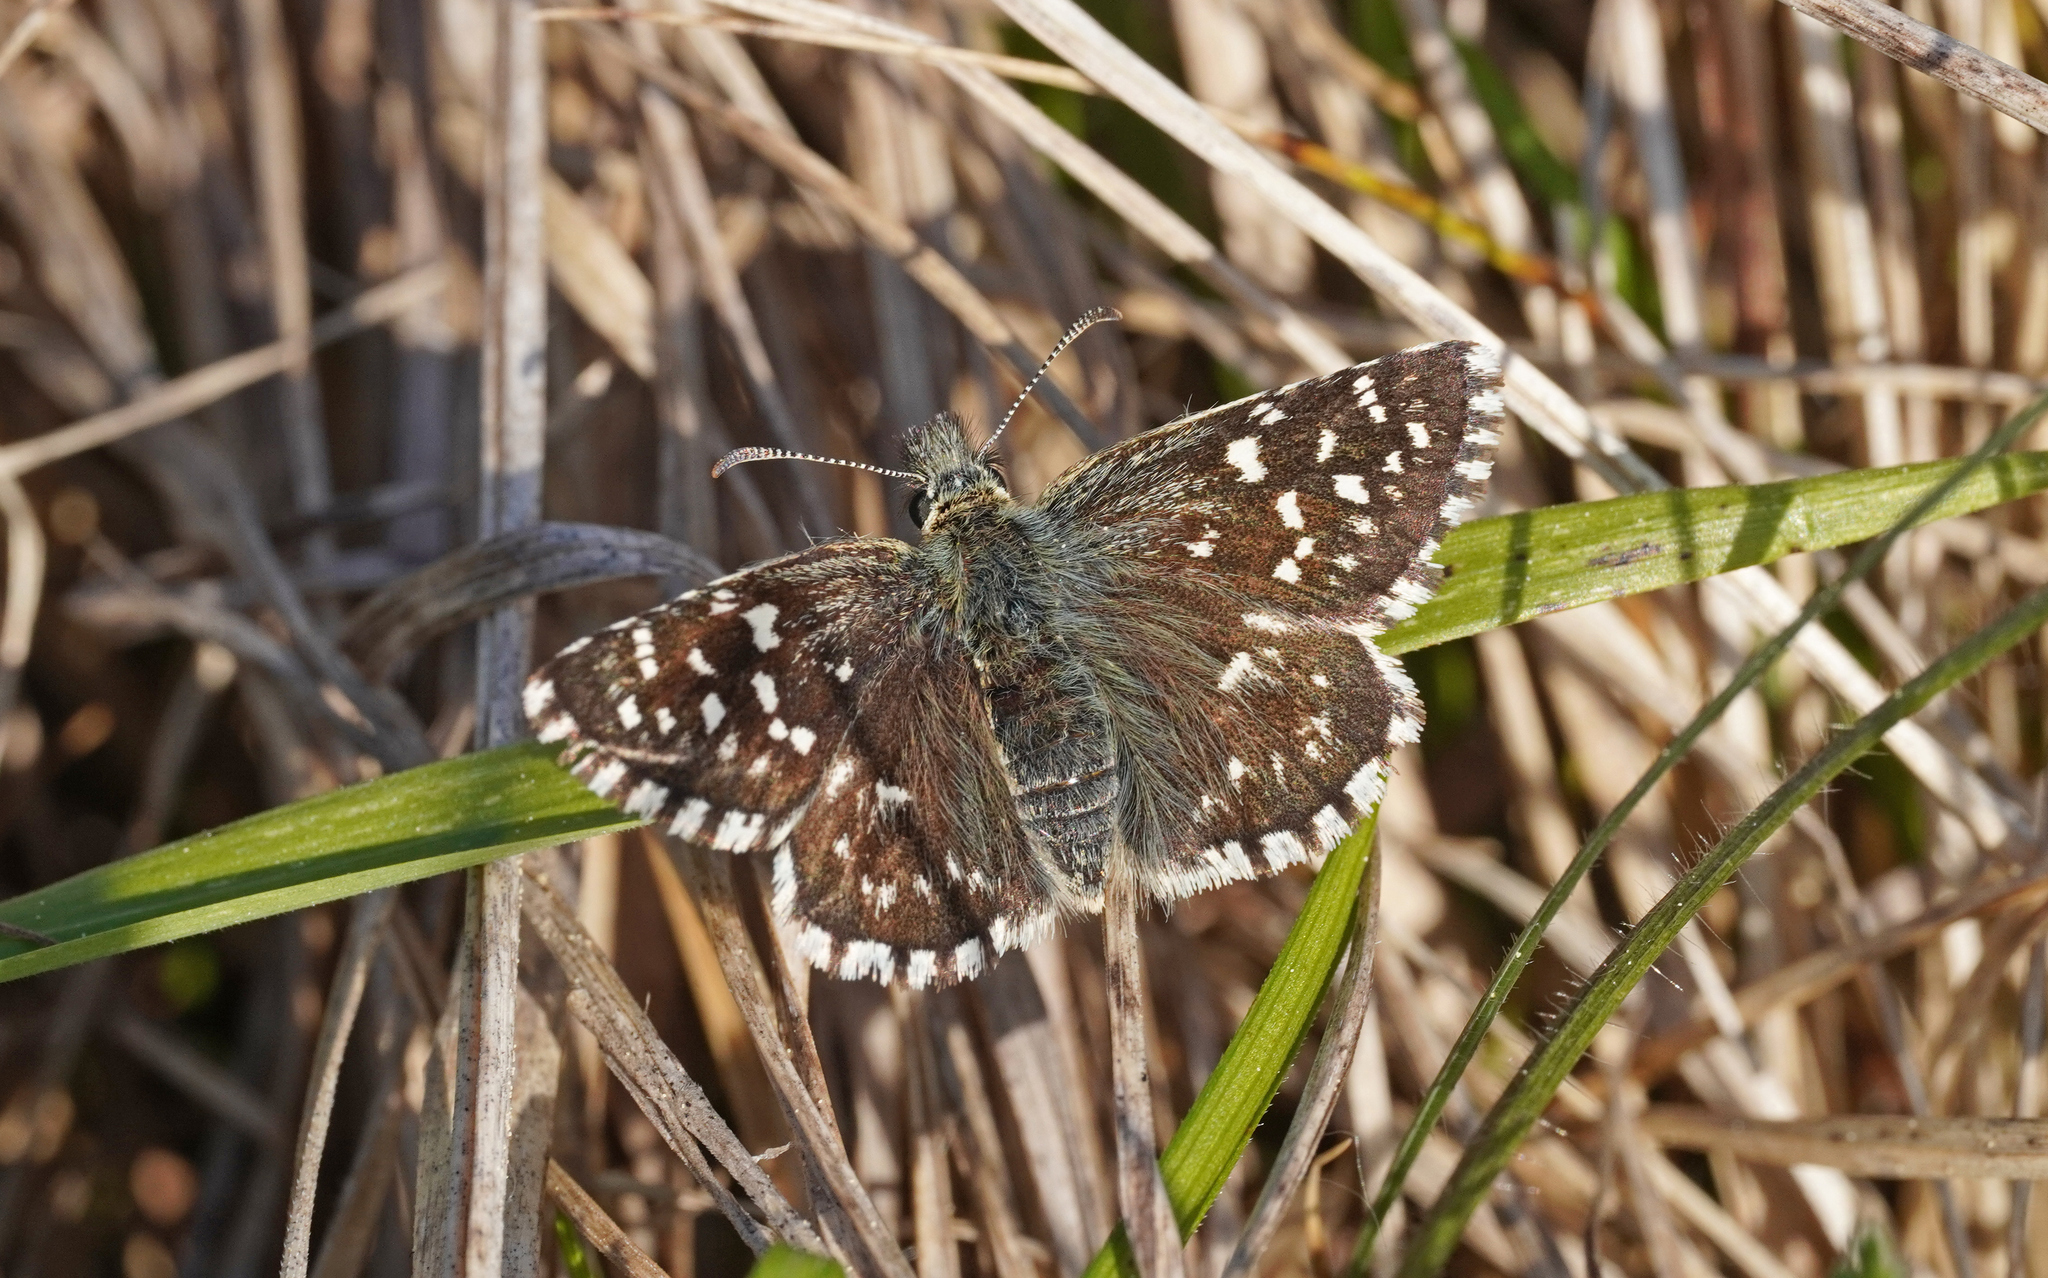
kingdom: Animalia
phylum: Arthropoda
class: Insecta
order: Lepidoptera
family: Hesperiidae
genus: Pyrgus
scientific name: Pyrgus malvae
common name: Grizzled skipper
